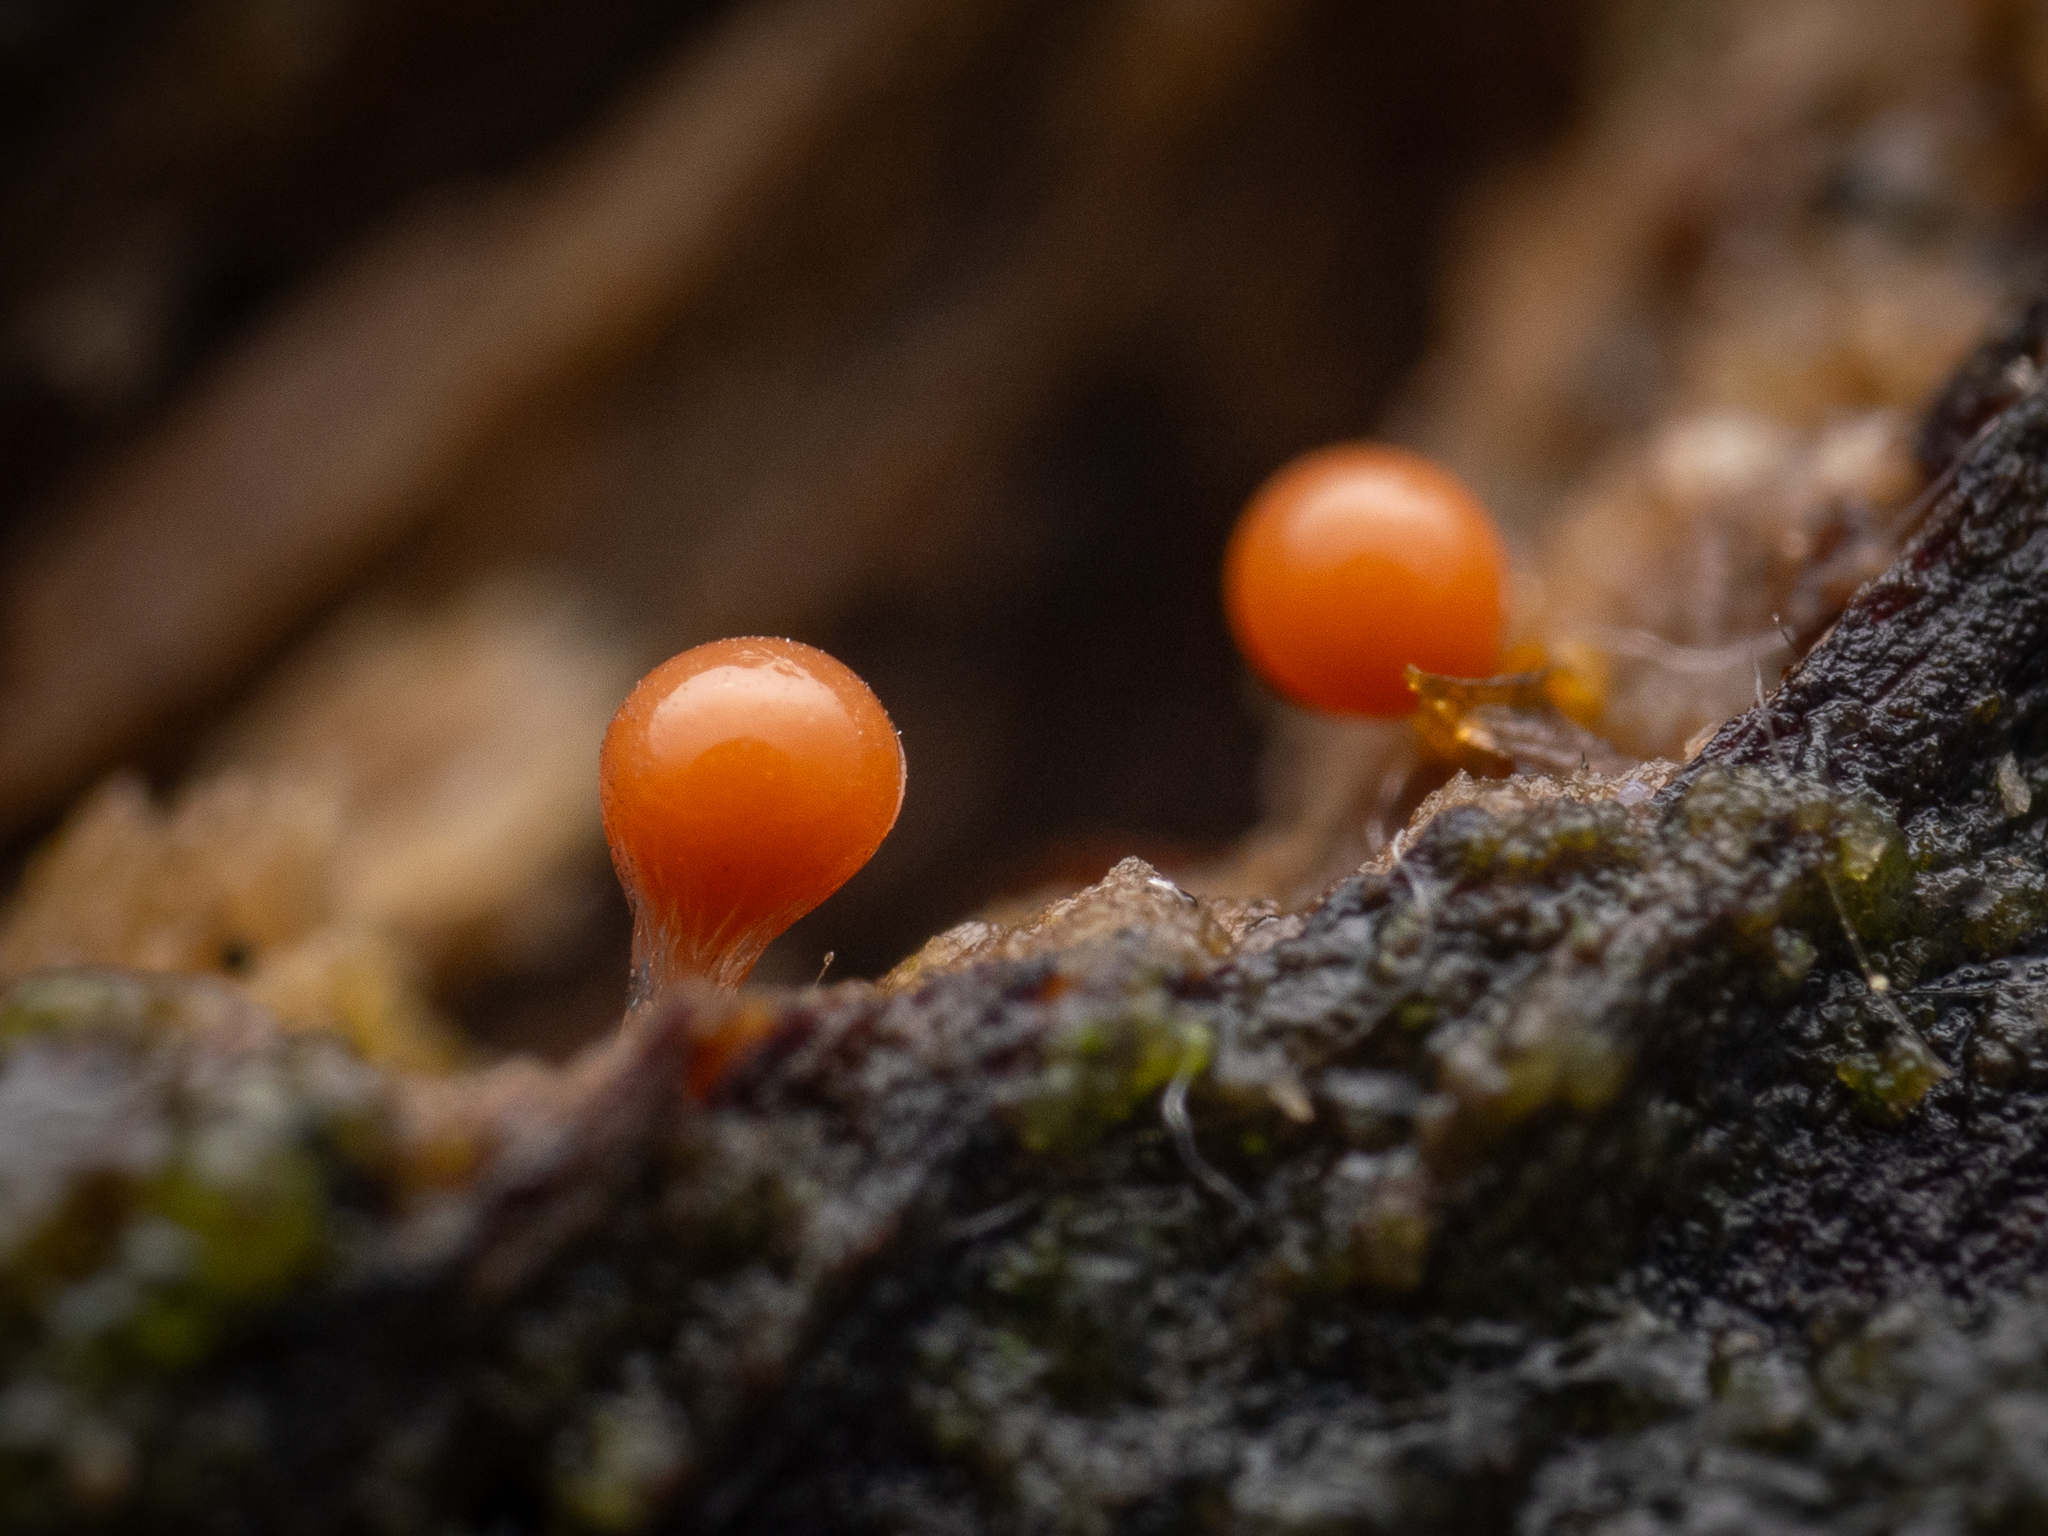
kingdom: Protozoa
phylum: Mycetozoa
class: Myxomycetes
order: Trichiales
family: Arcyriaceae
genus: Hemitrichia
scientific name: Hemitrichia decipiens
